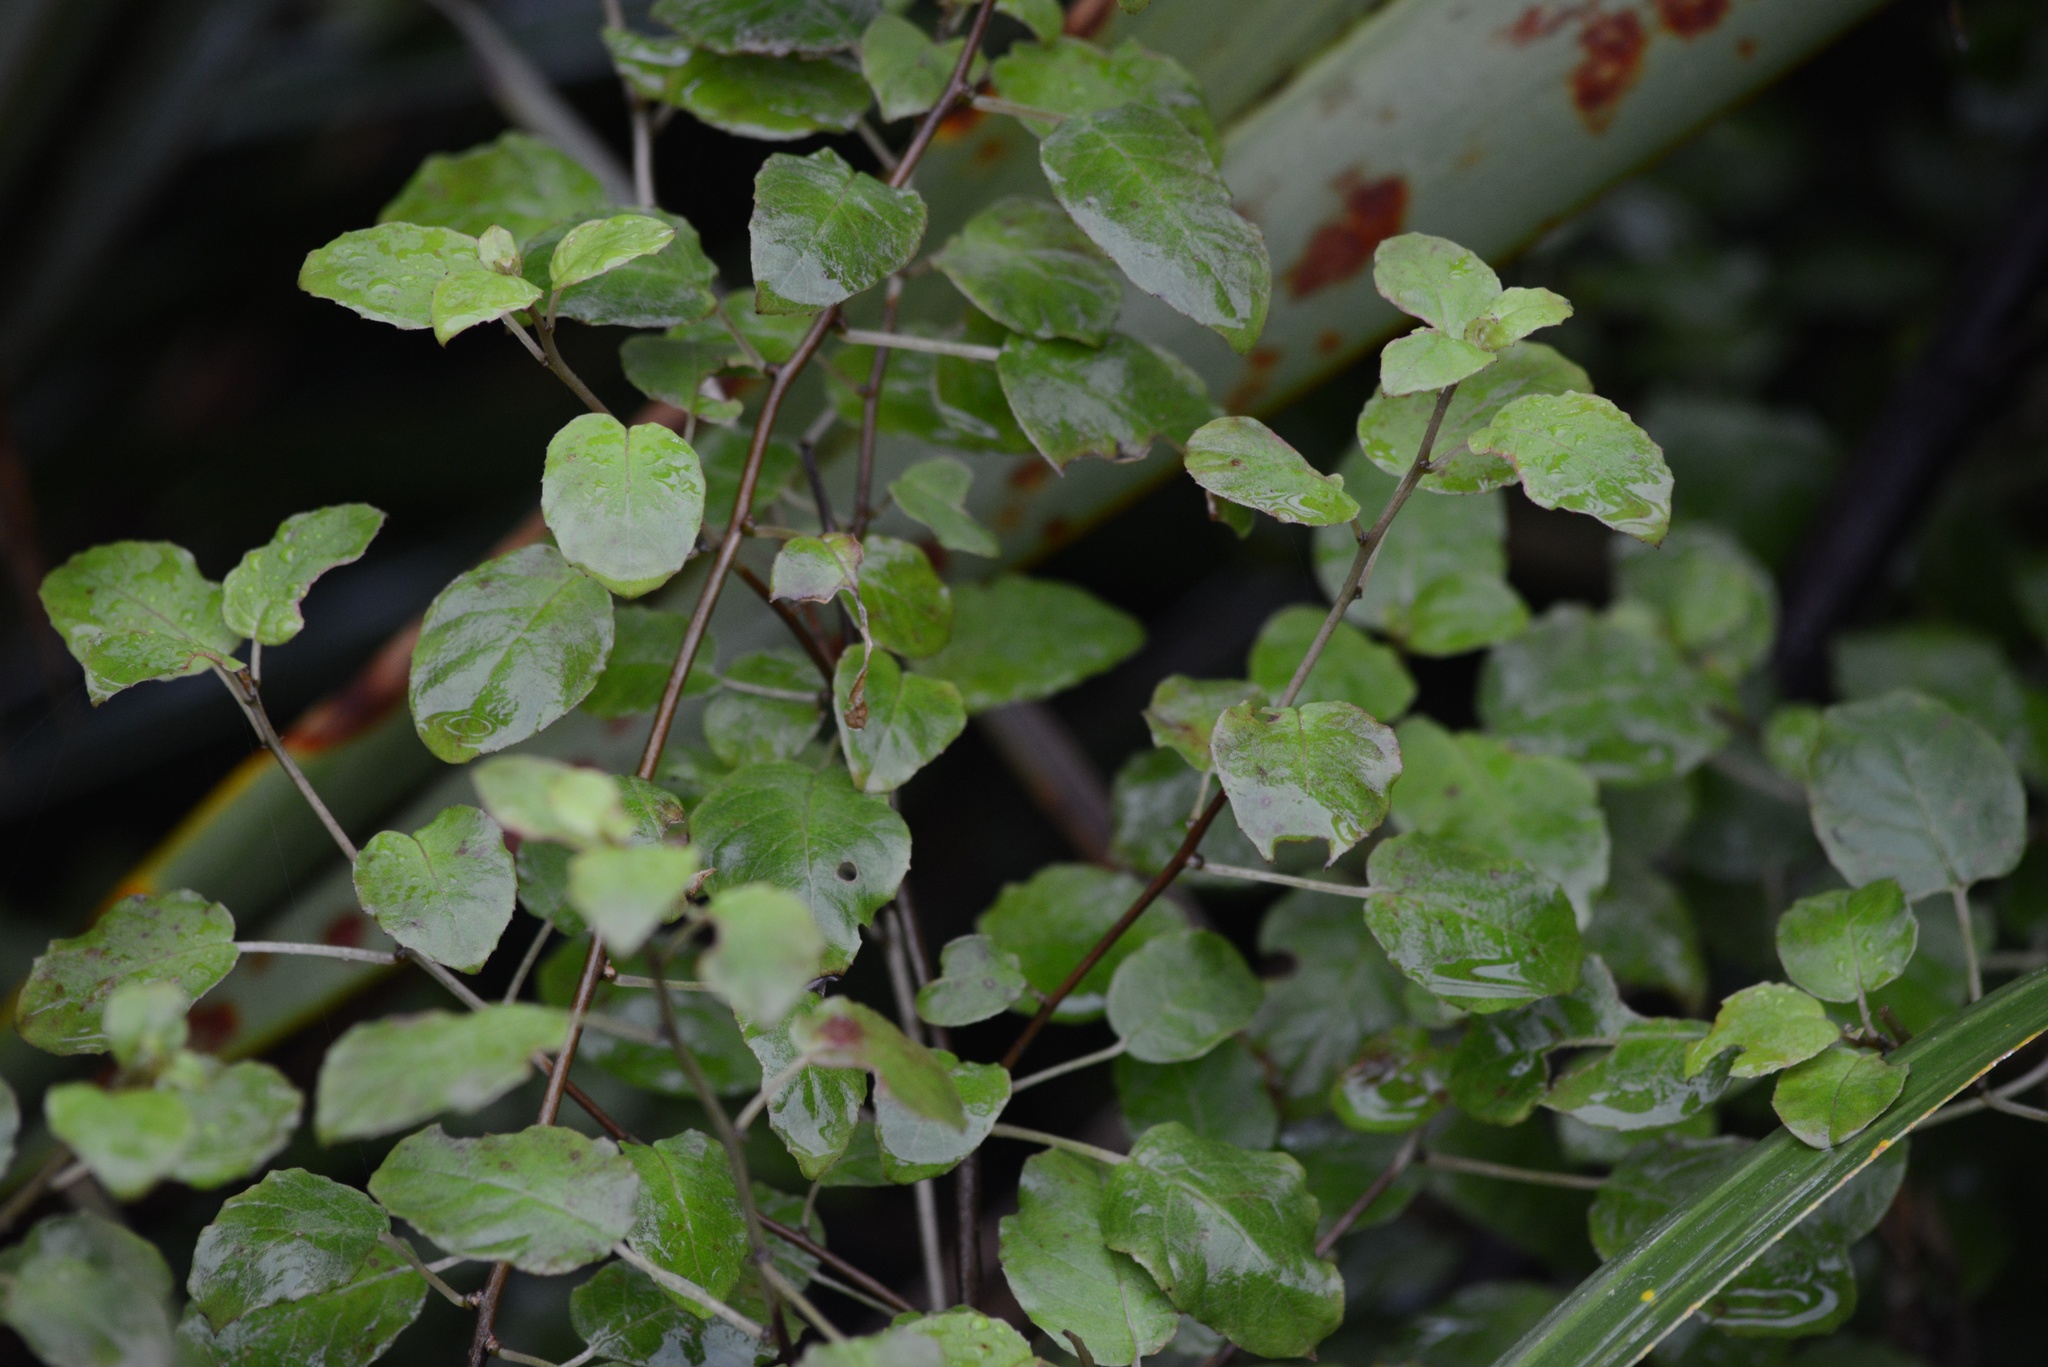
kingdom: Plantae
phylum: Tracheophyta
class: Magnoliopsida
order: Myrtales
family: Onagraceae
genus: Fuchsia
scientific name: Fuchsia perscandens
